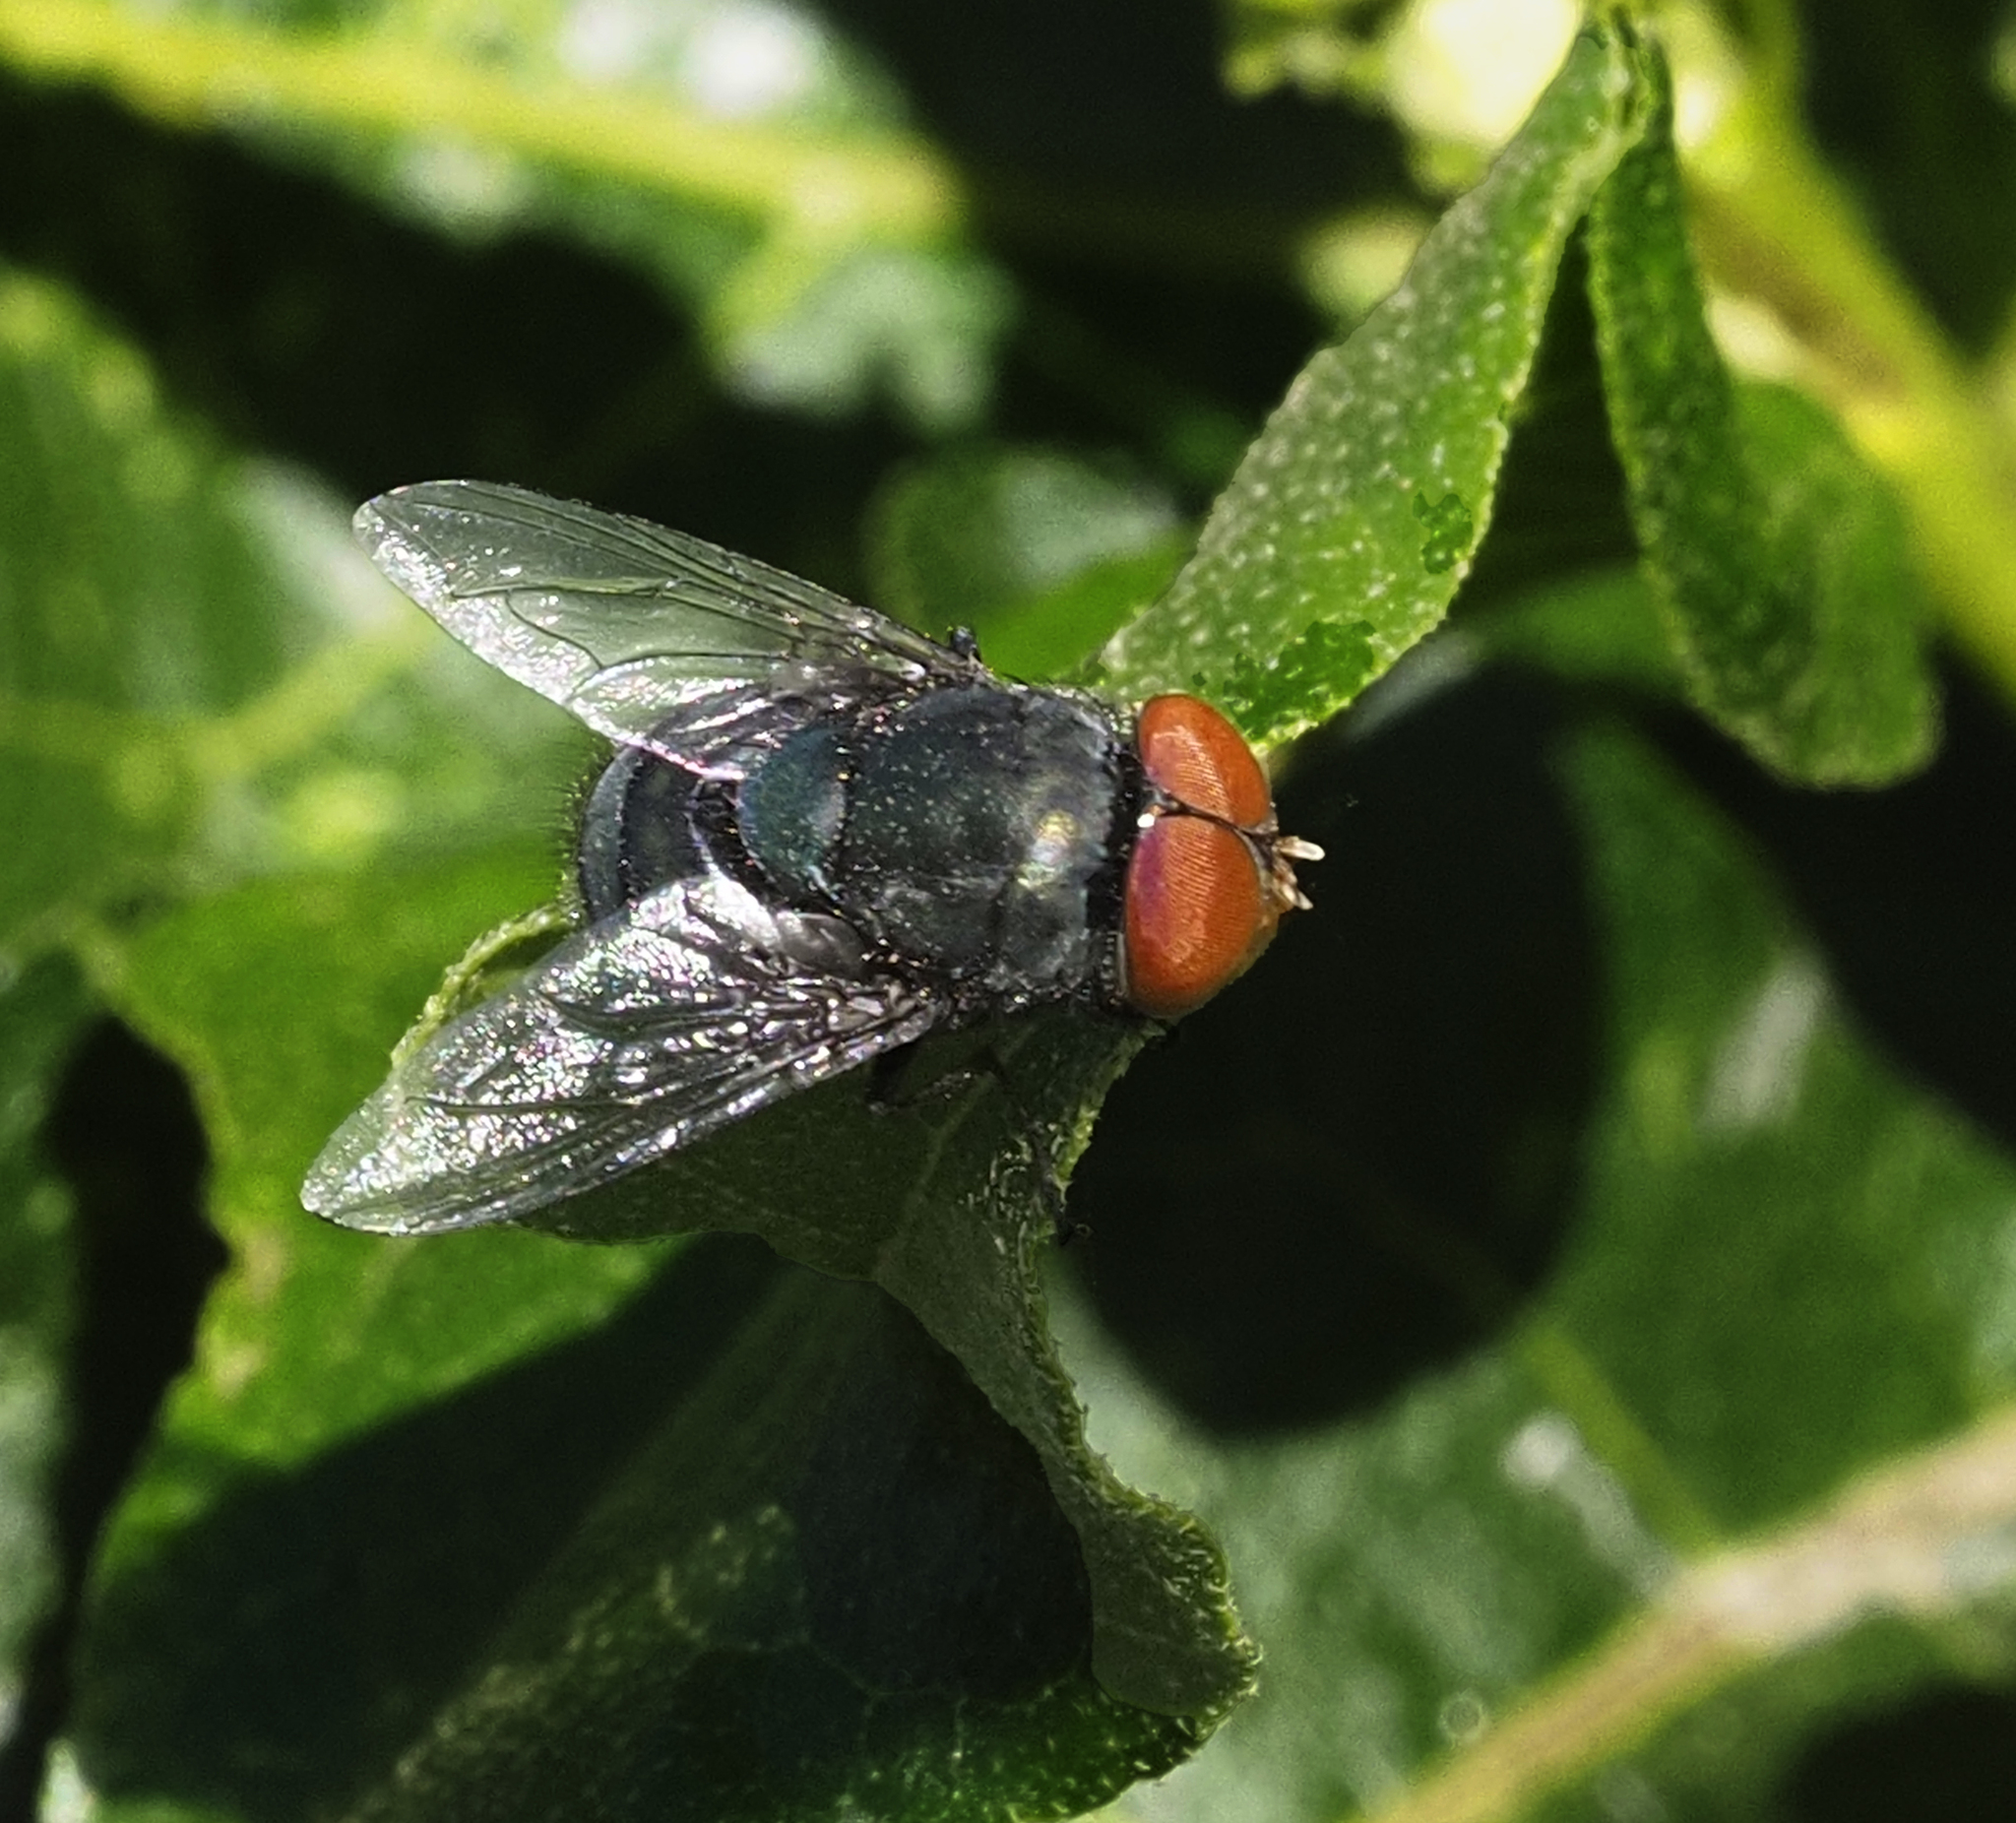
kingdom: Animalia
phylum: Arthropoda
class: Insecta
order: Diptera
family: Calliphoridae
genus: Chrysomya
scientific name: Chrysomya megacephala
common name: Blow fly
